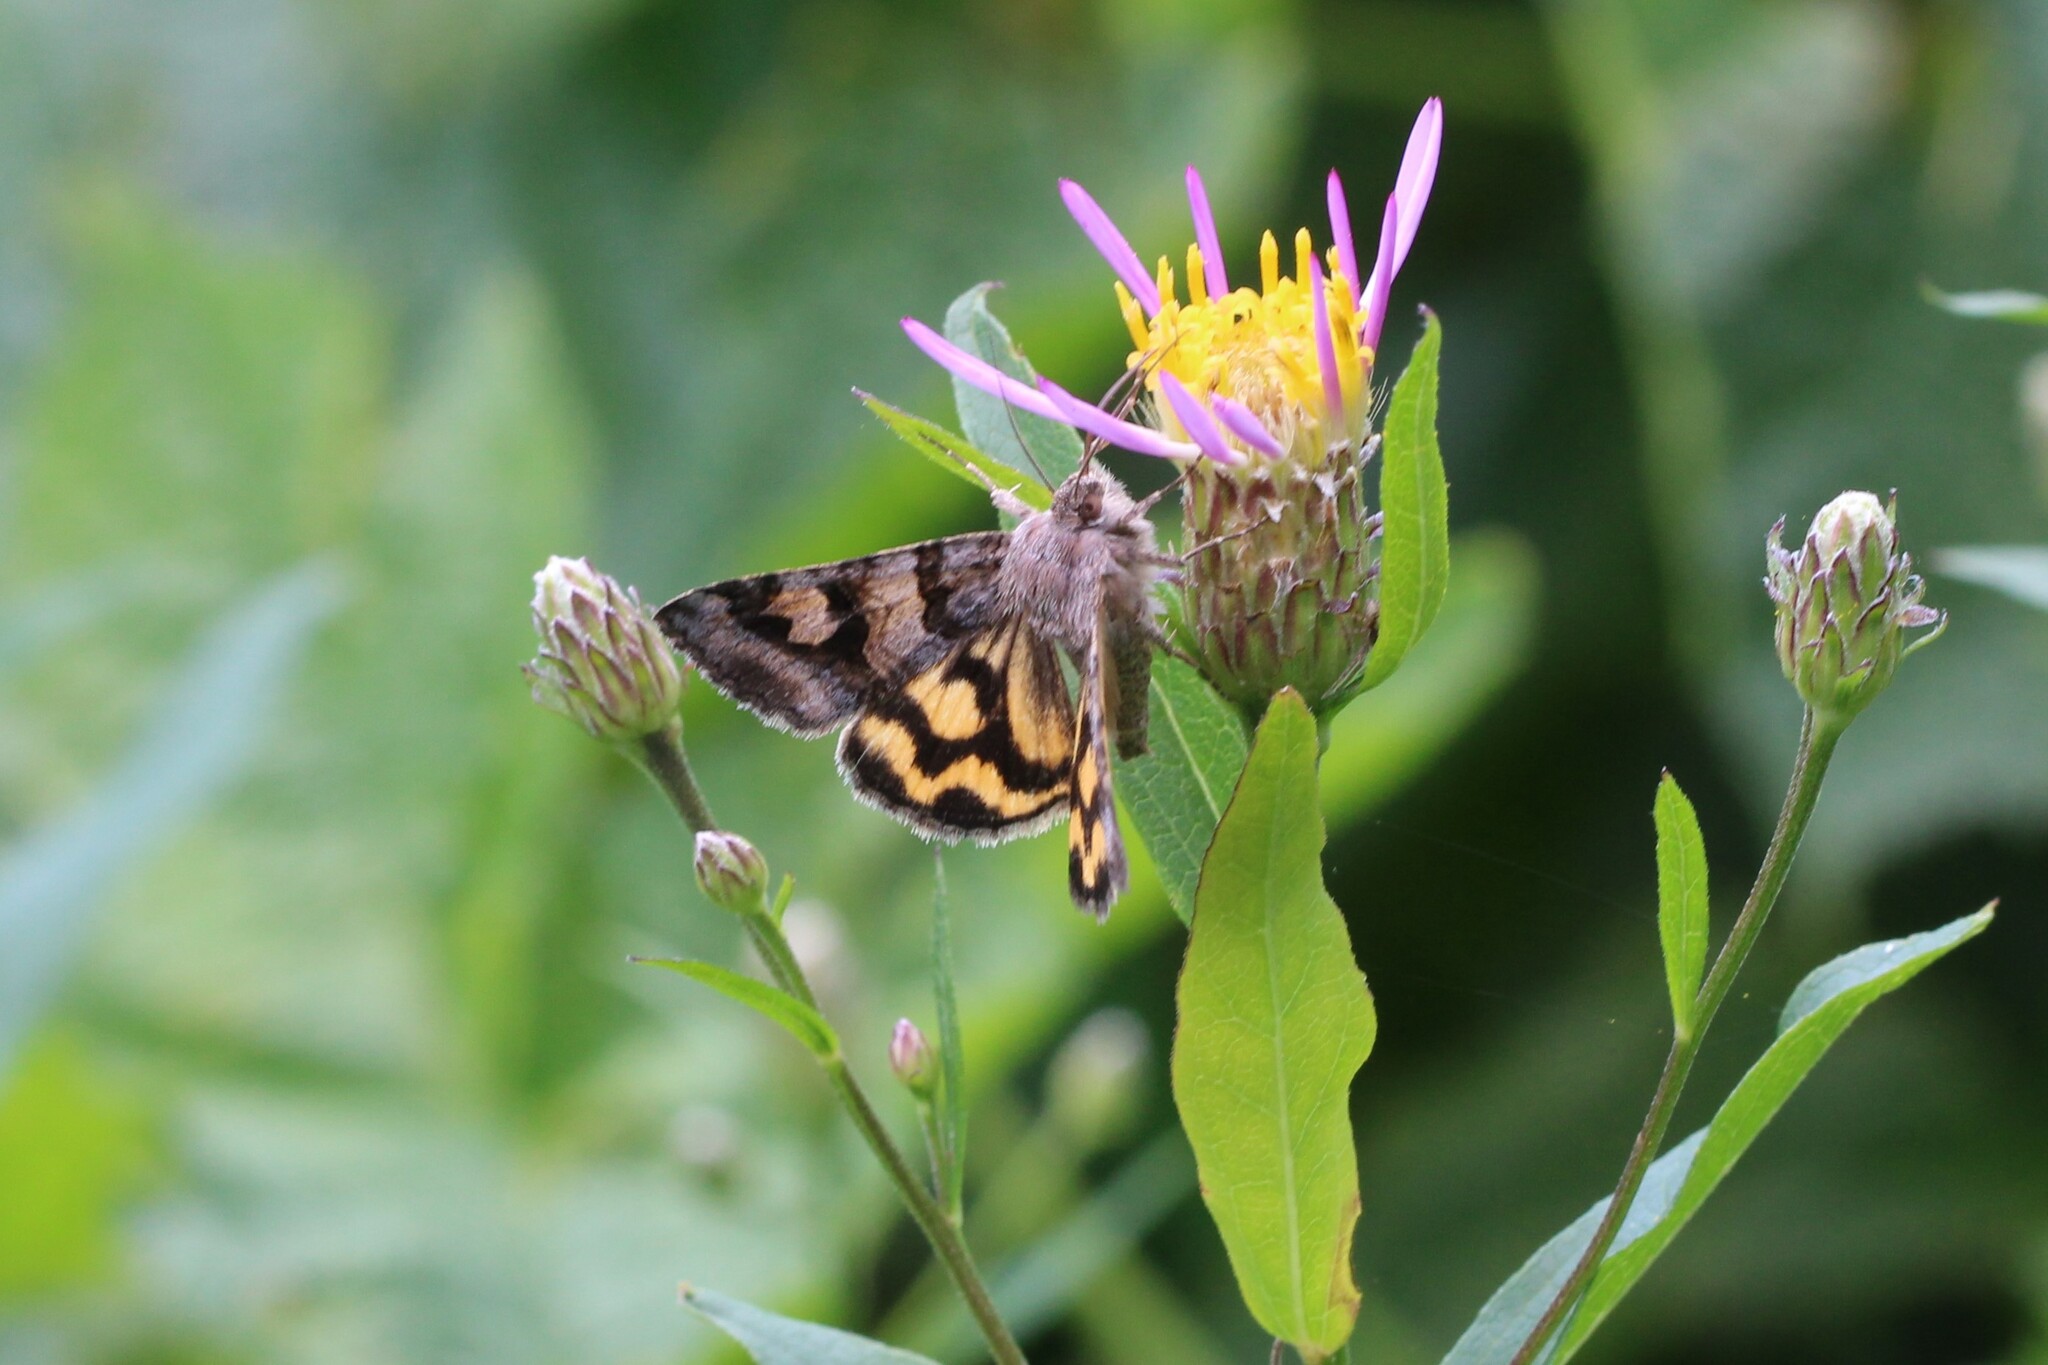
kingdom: Animalia
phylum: Arthropoda
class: Insecta
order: Lepidoptera
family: Erebidae
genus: Drasteria
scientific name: Drasteria adumbrata
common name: Shadowy arches
